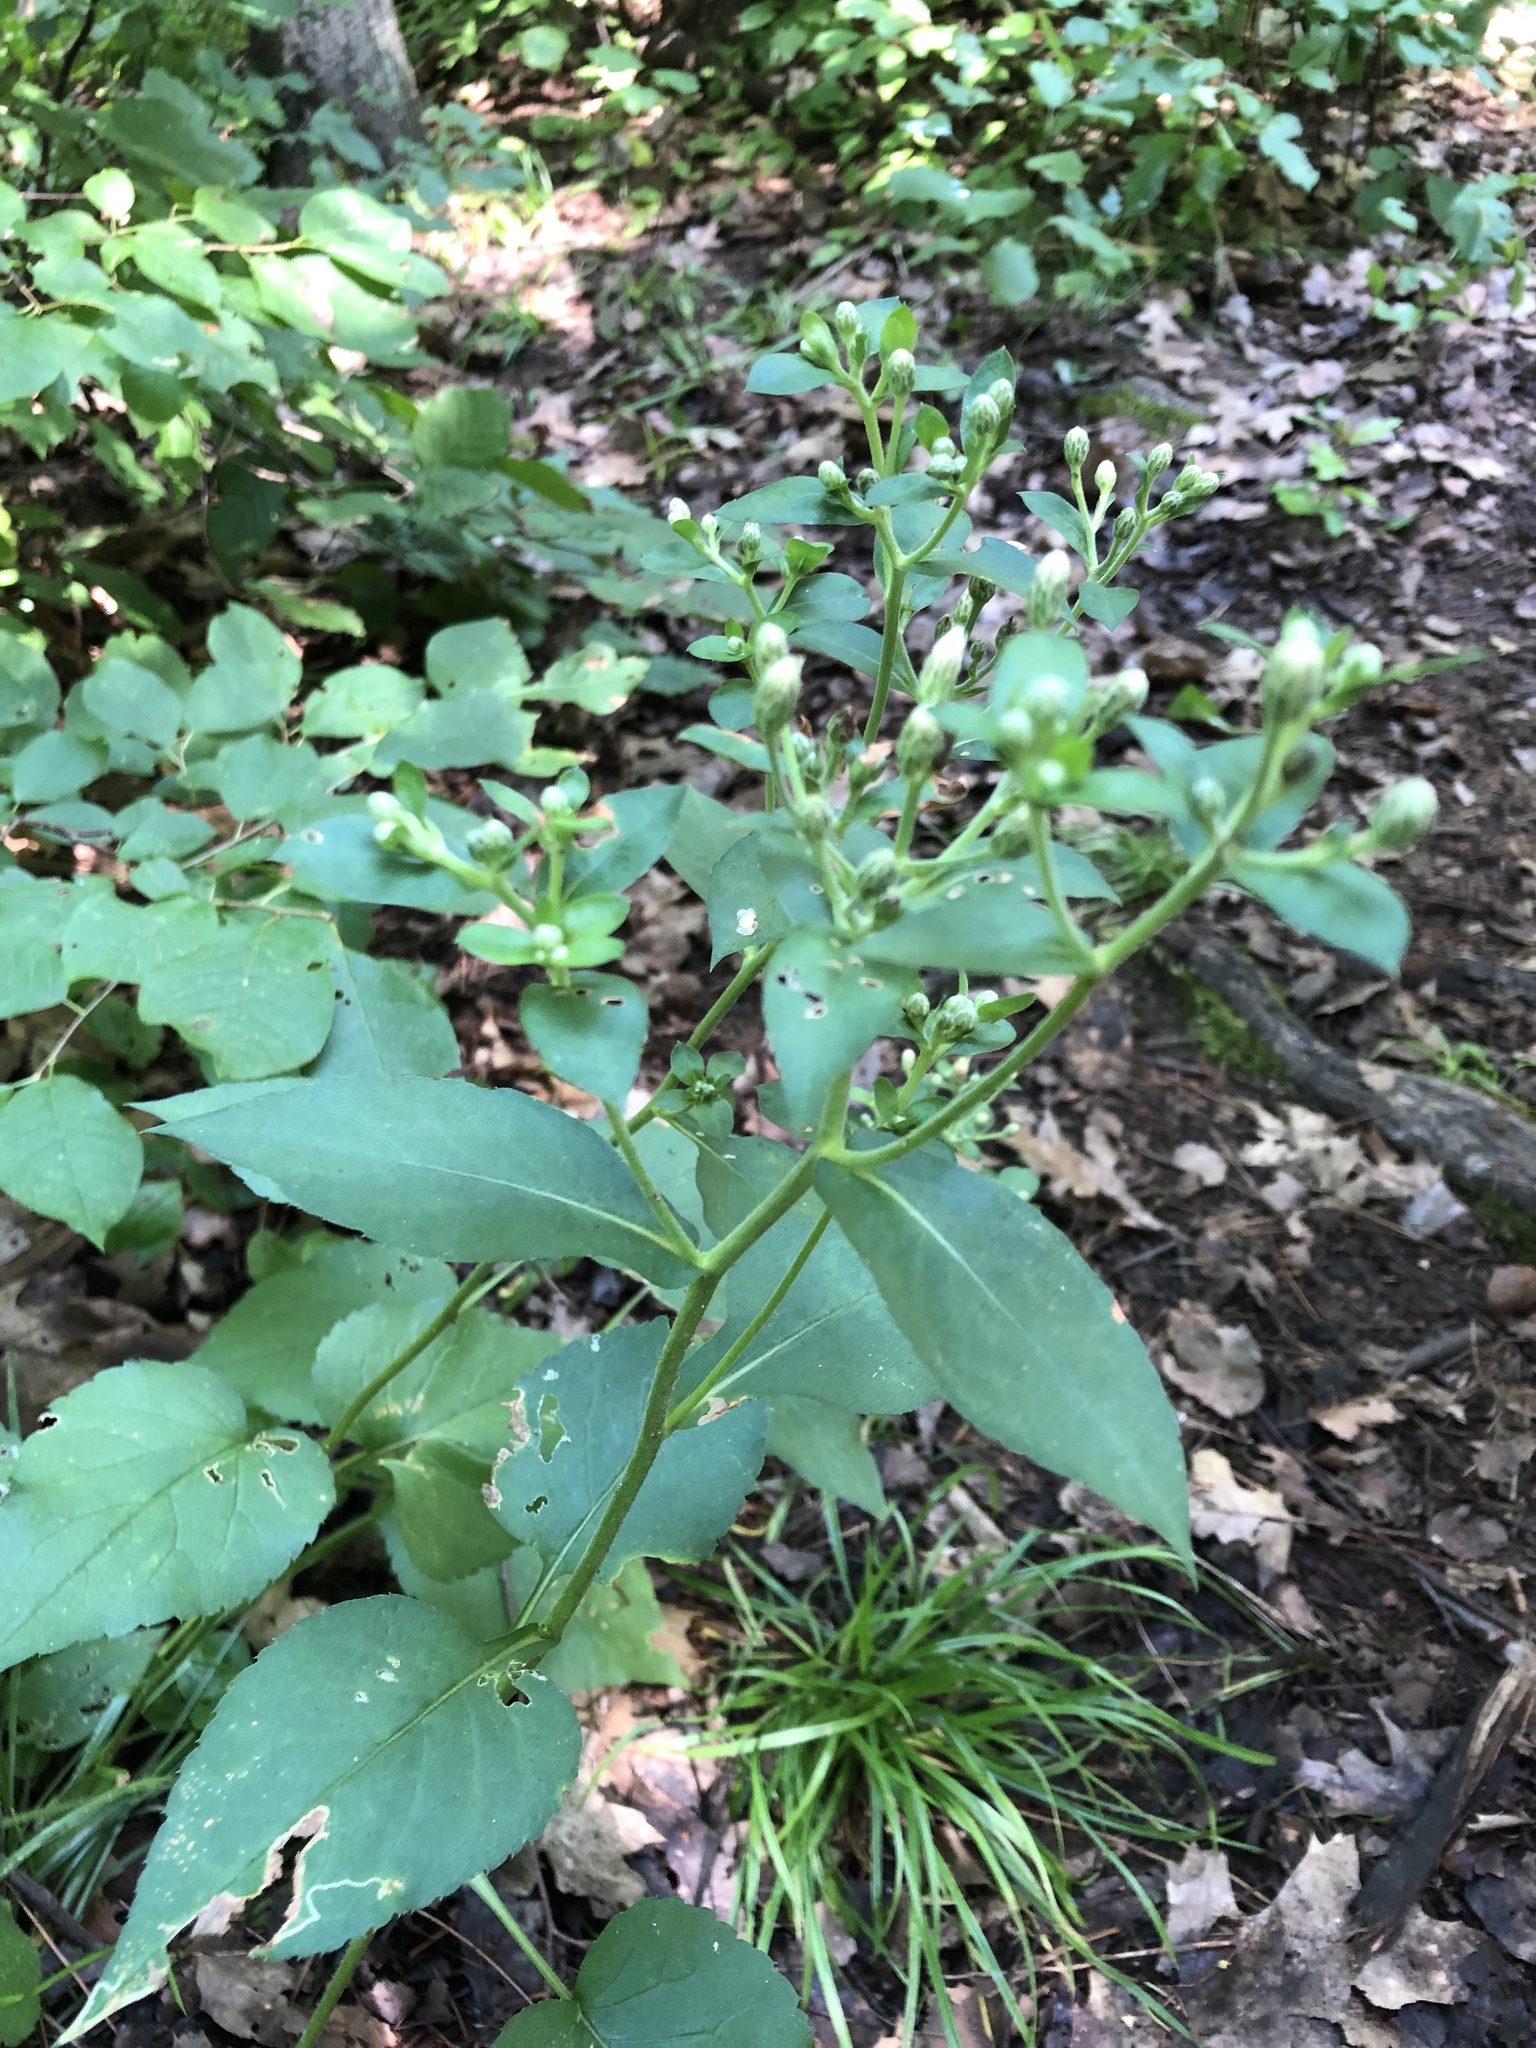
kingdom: Plantae
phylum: Tracheophyta
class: Magnoliopsida
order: Asterales
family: Asteraceae
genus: Eurybia
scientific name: Eurybia macrophylla
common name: Big-leaved aster
